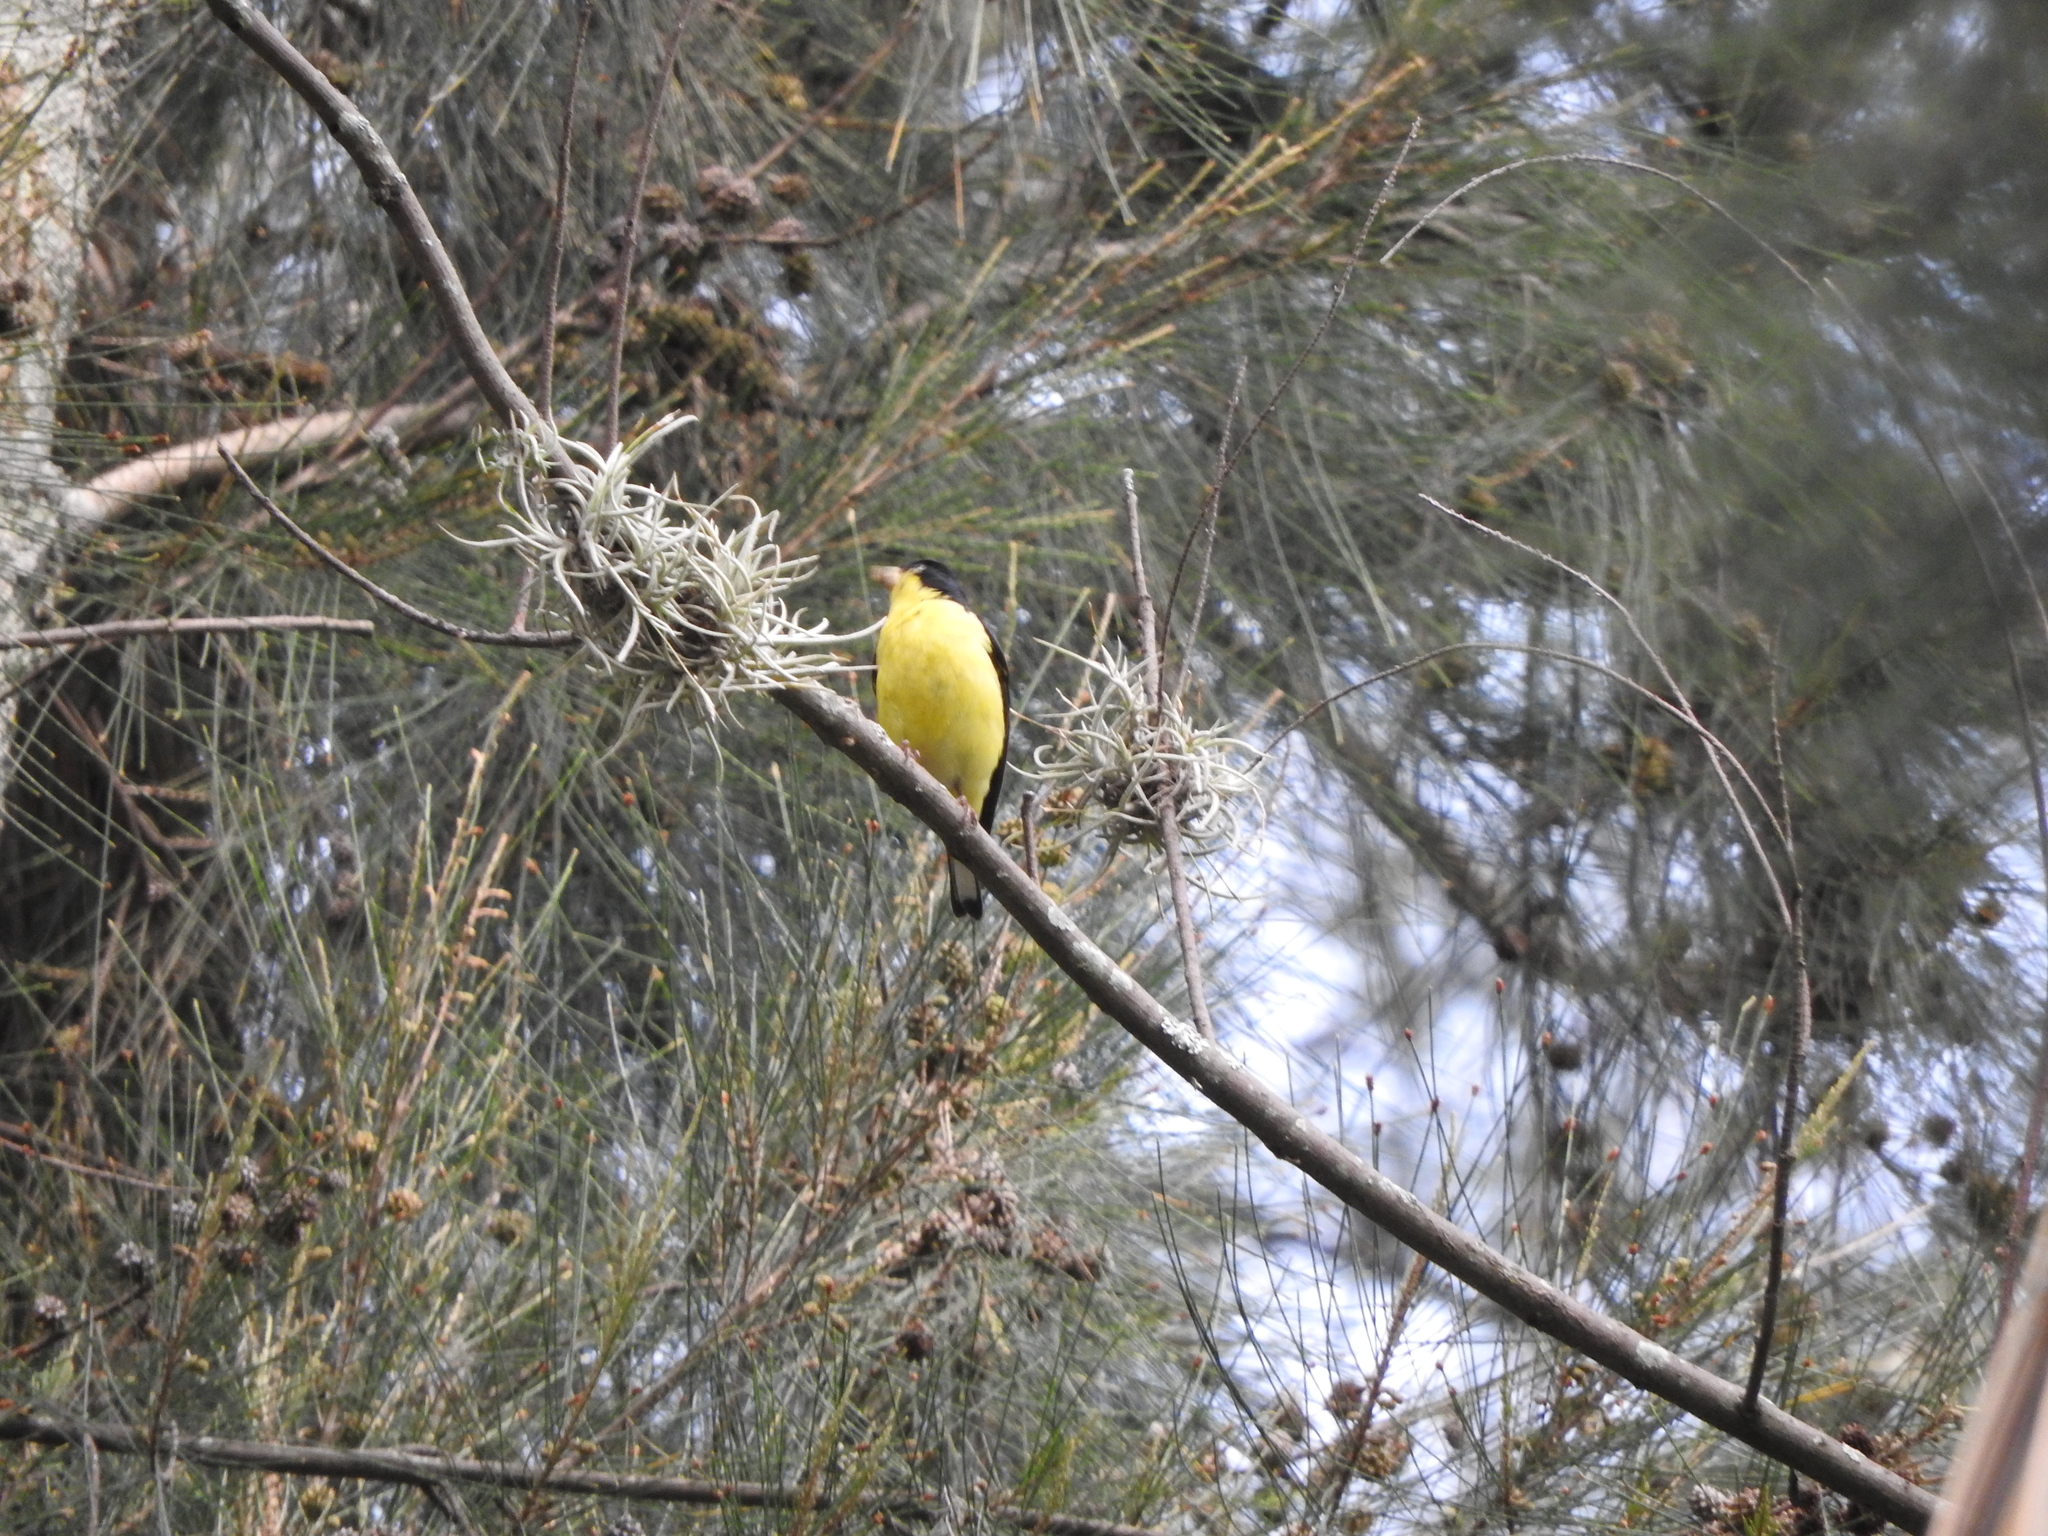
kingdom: Animalia
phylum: Chordata
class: Aves
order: Passeriformes
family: Fringillidae
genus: Spinus
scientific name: Spinus psaltria
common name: Lesser goldfinch
